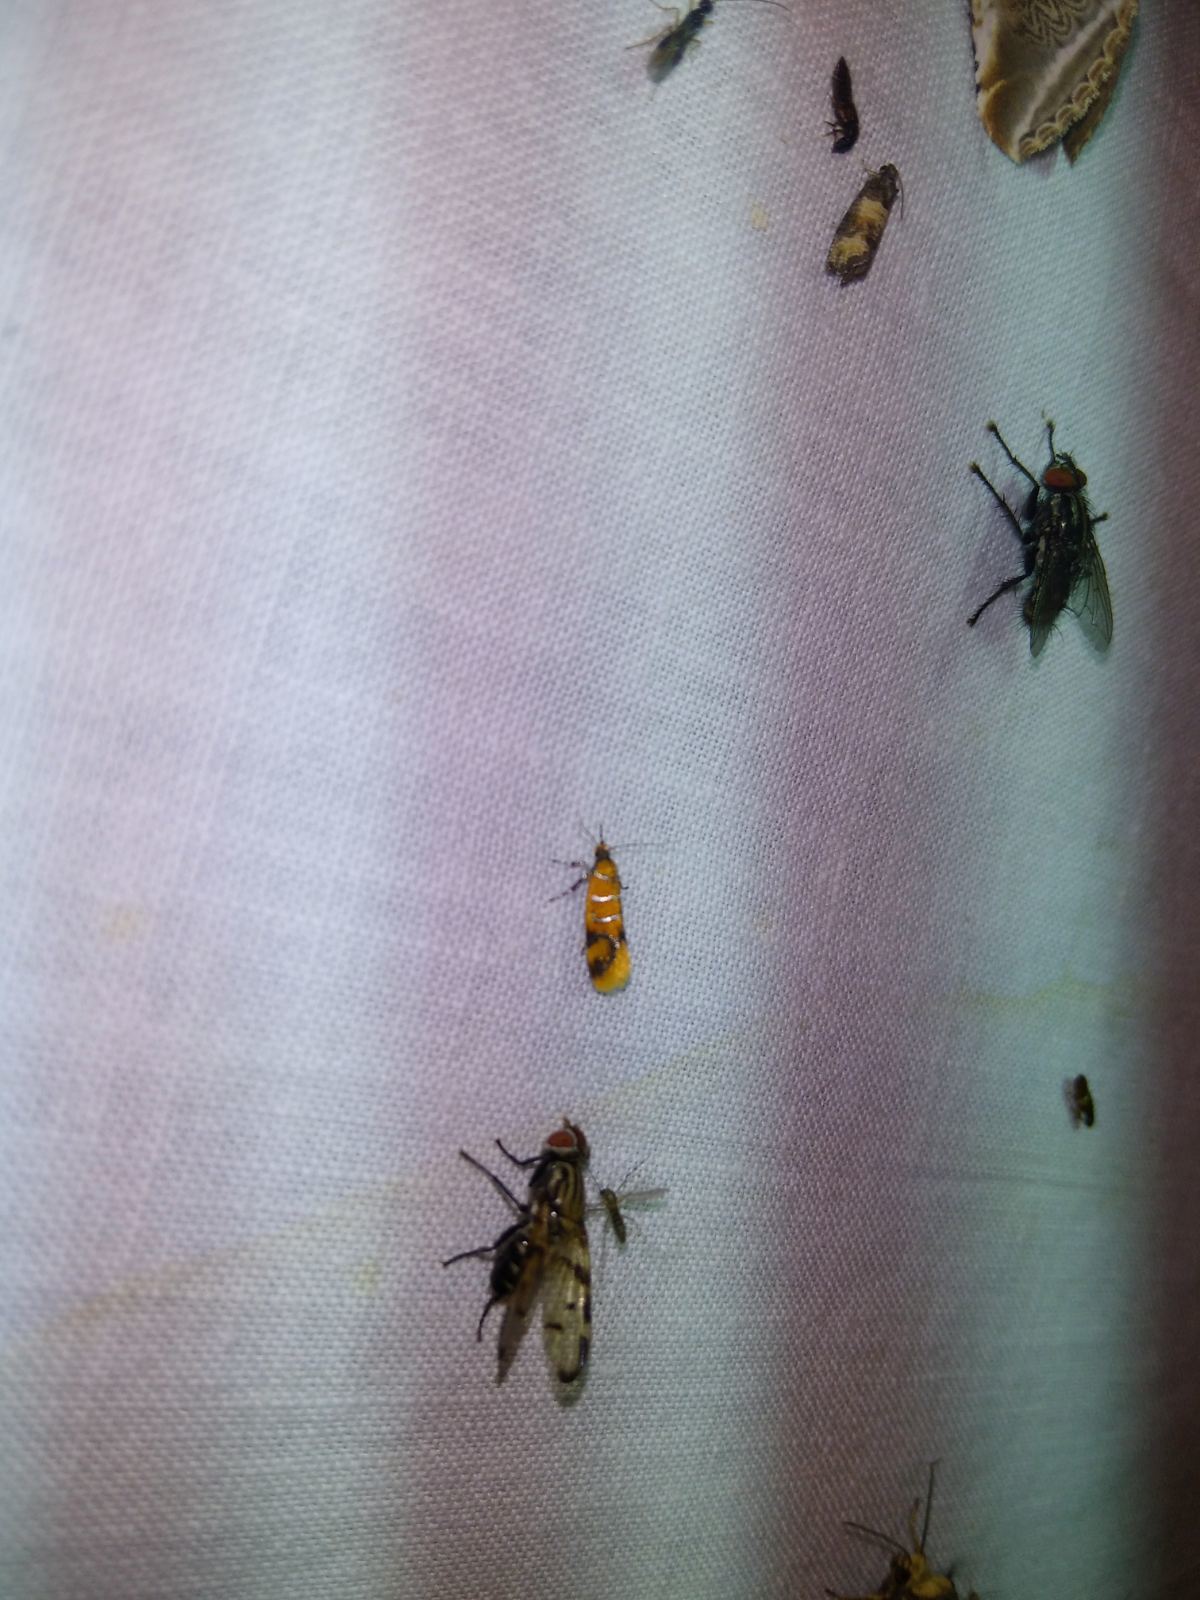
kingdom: Animalia
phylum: Arthropoda
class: Insecta
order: Lepidoptera
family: Oecophoridae
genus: Schiffermuelleria
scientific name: Schiffermuelleria procerella
